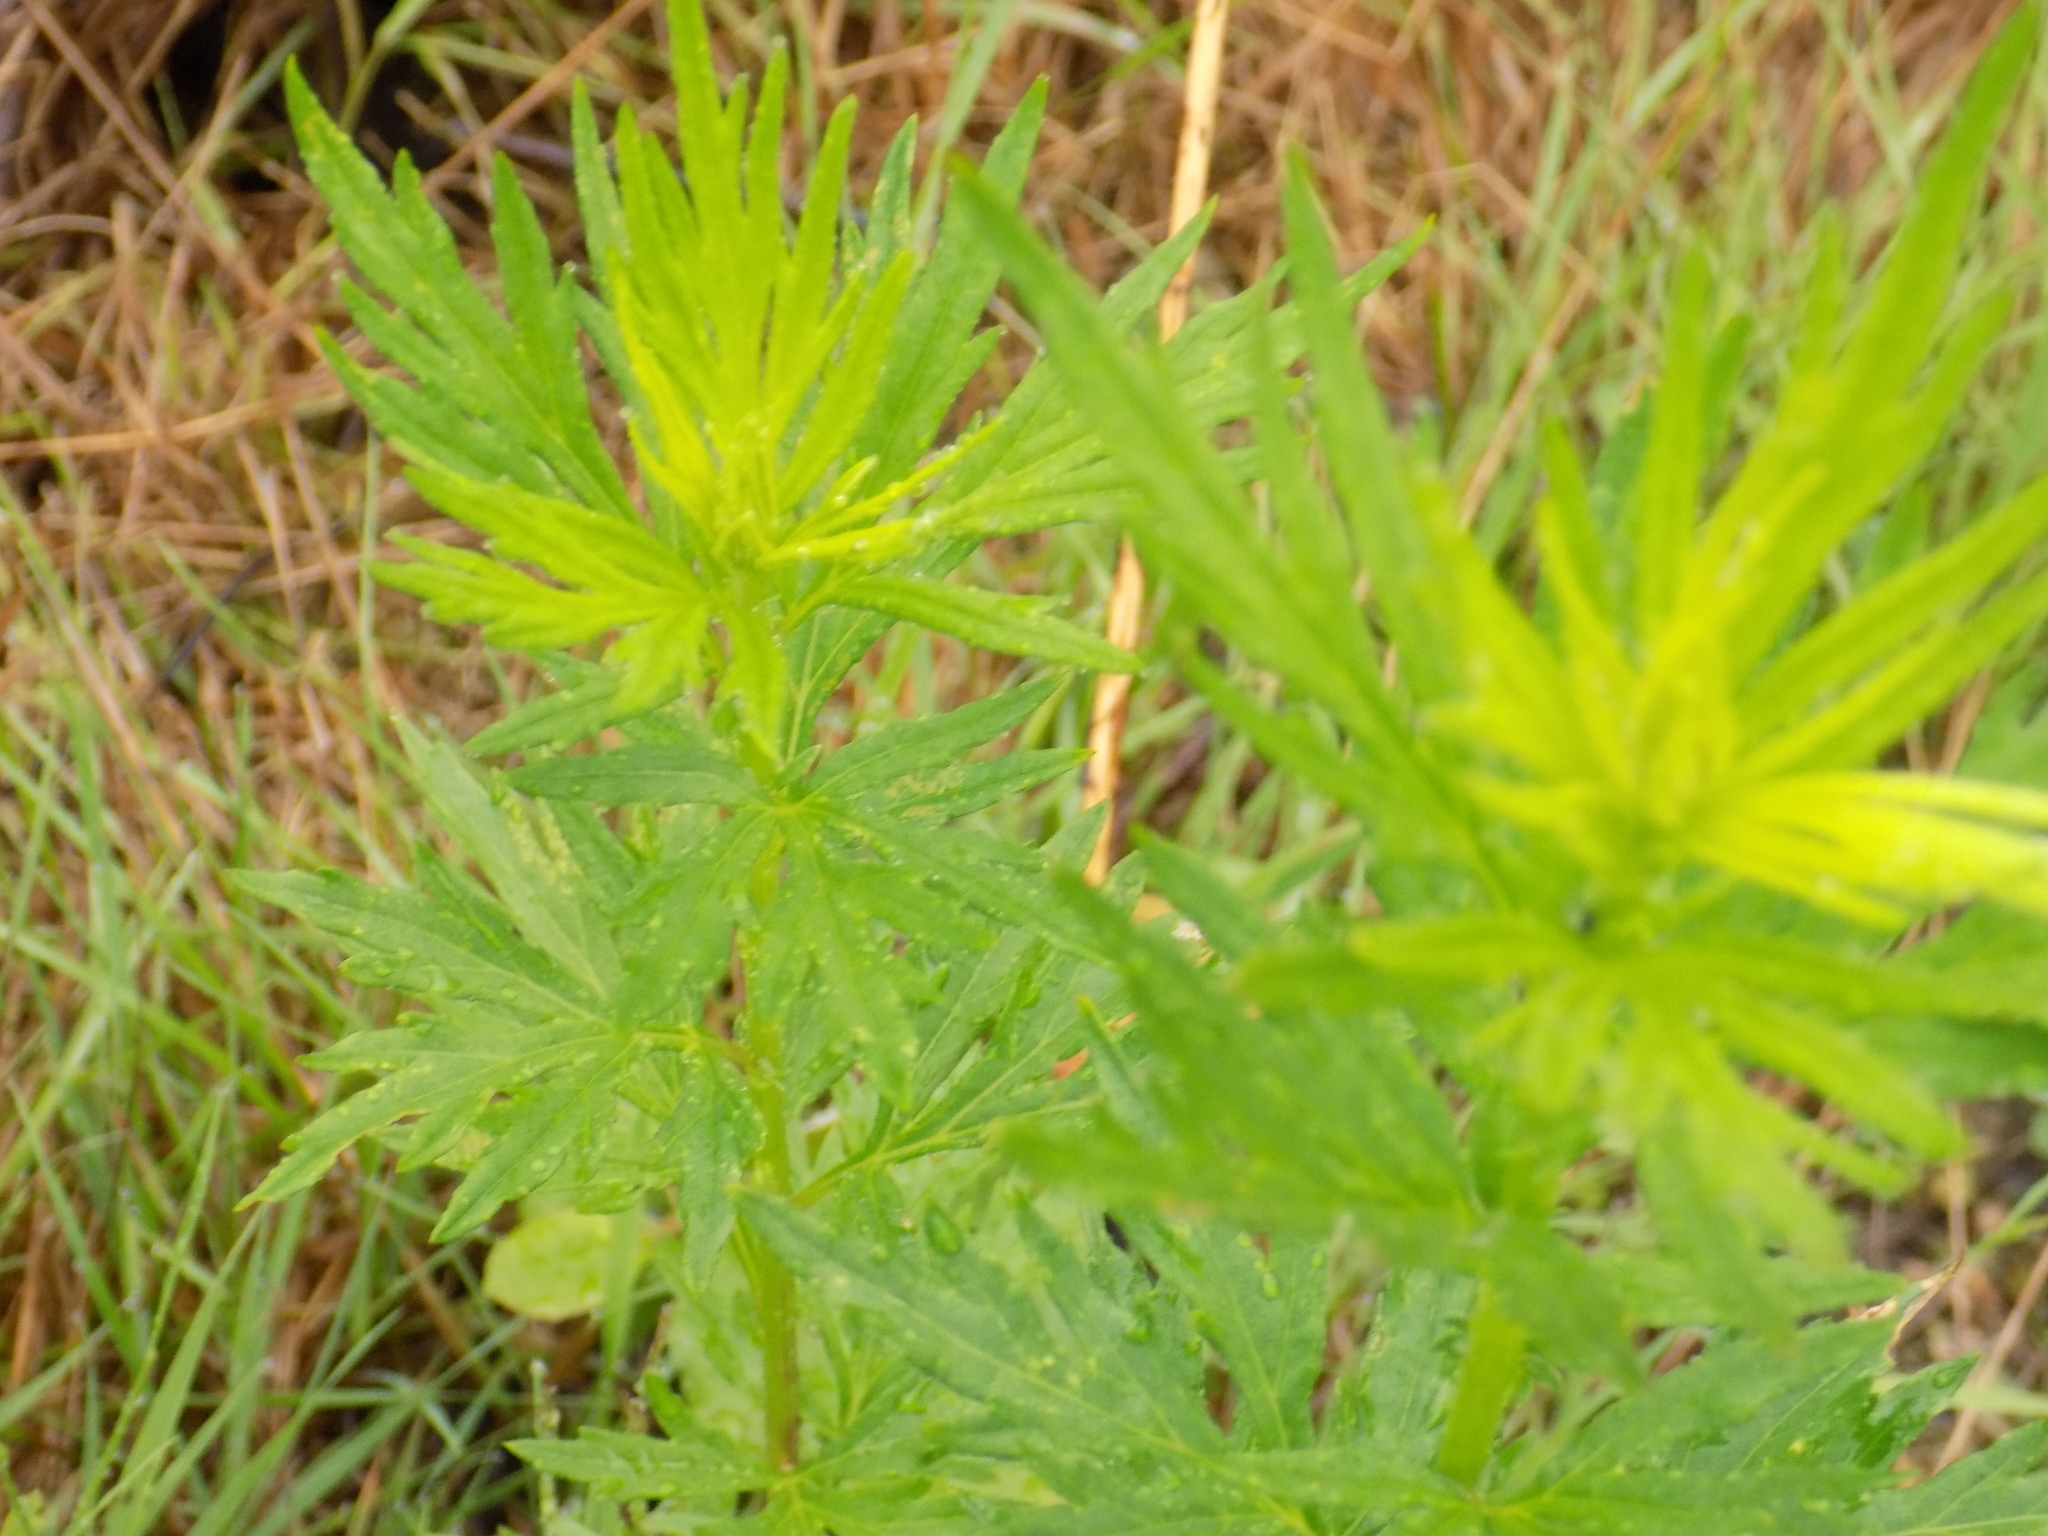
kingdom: Plantae
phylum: Tracheophyta
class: Magnoliopsida
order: Asterales
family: Asteraceae
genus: Artemisia
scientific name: Artemisia vulgaris
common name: Mugwort
